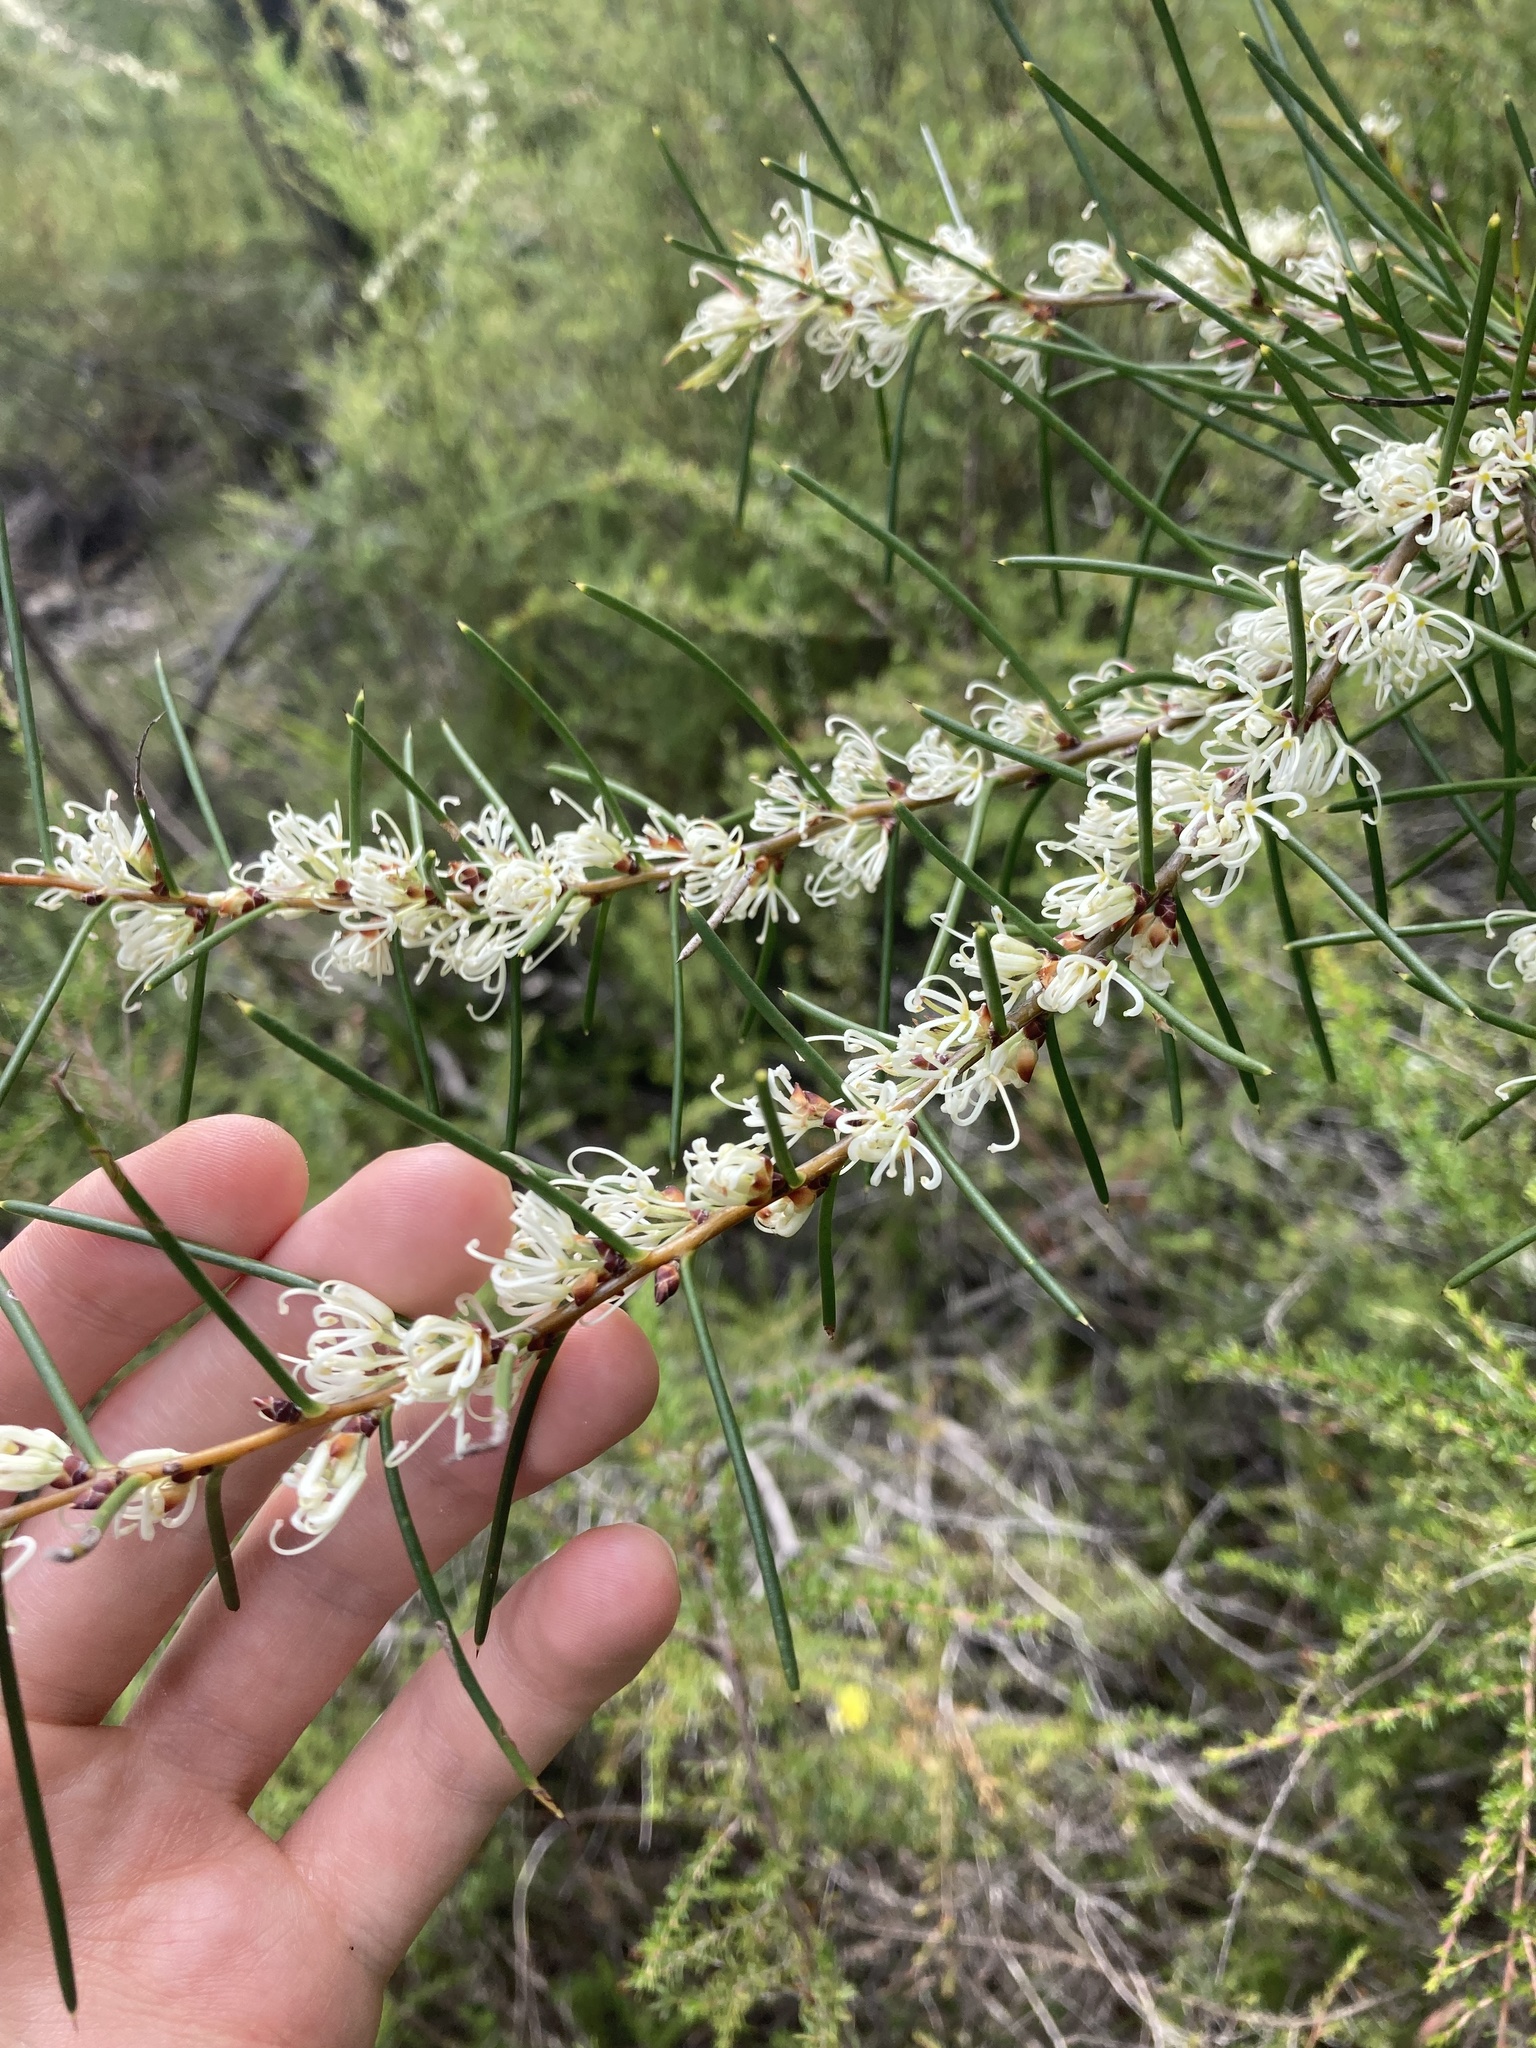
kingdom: Plantae
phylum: Tracheophyta
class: Magnoliopsida
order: Proteales
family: Proteaceae
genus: Hakea
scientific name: Hakea teretifolia
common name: Dagger hakea
